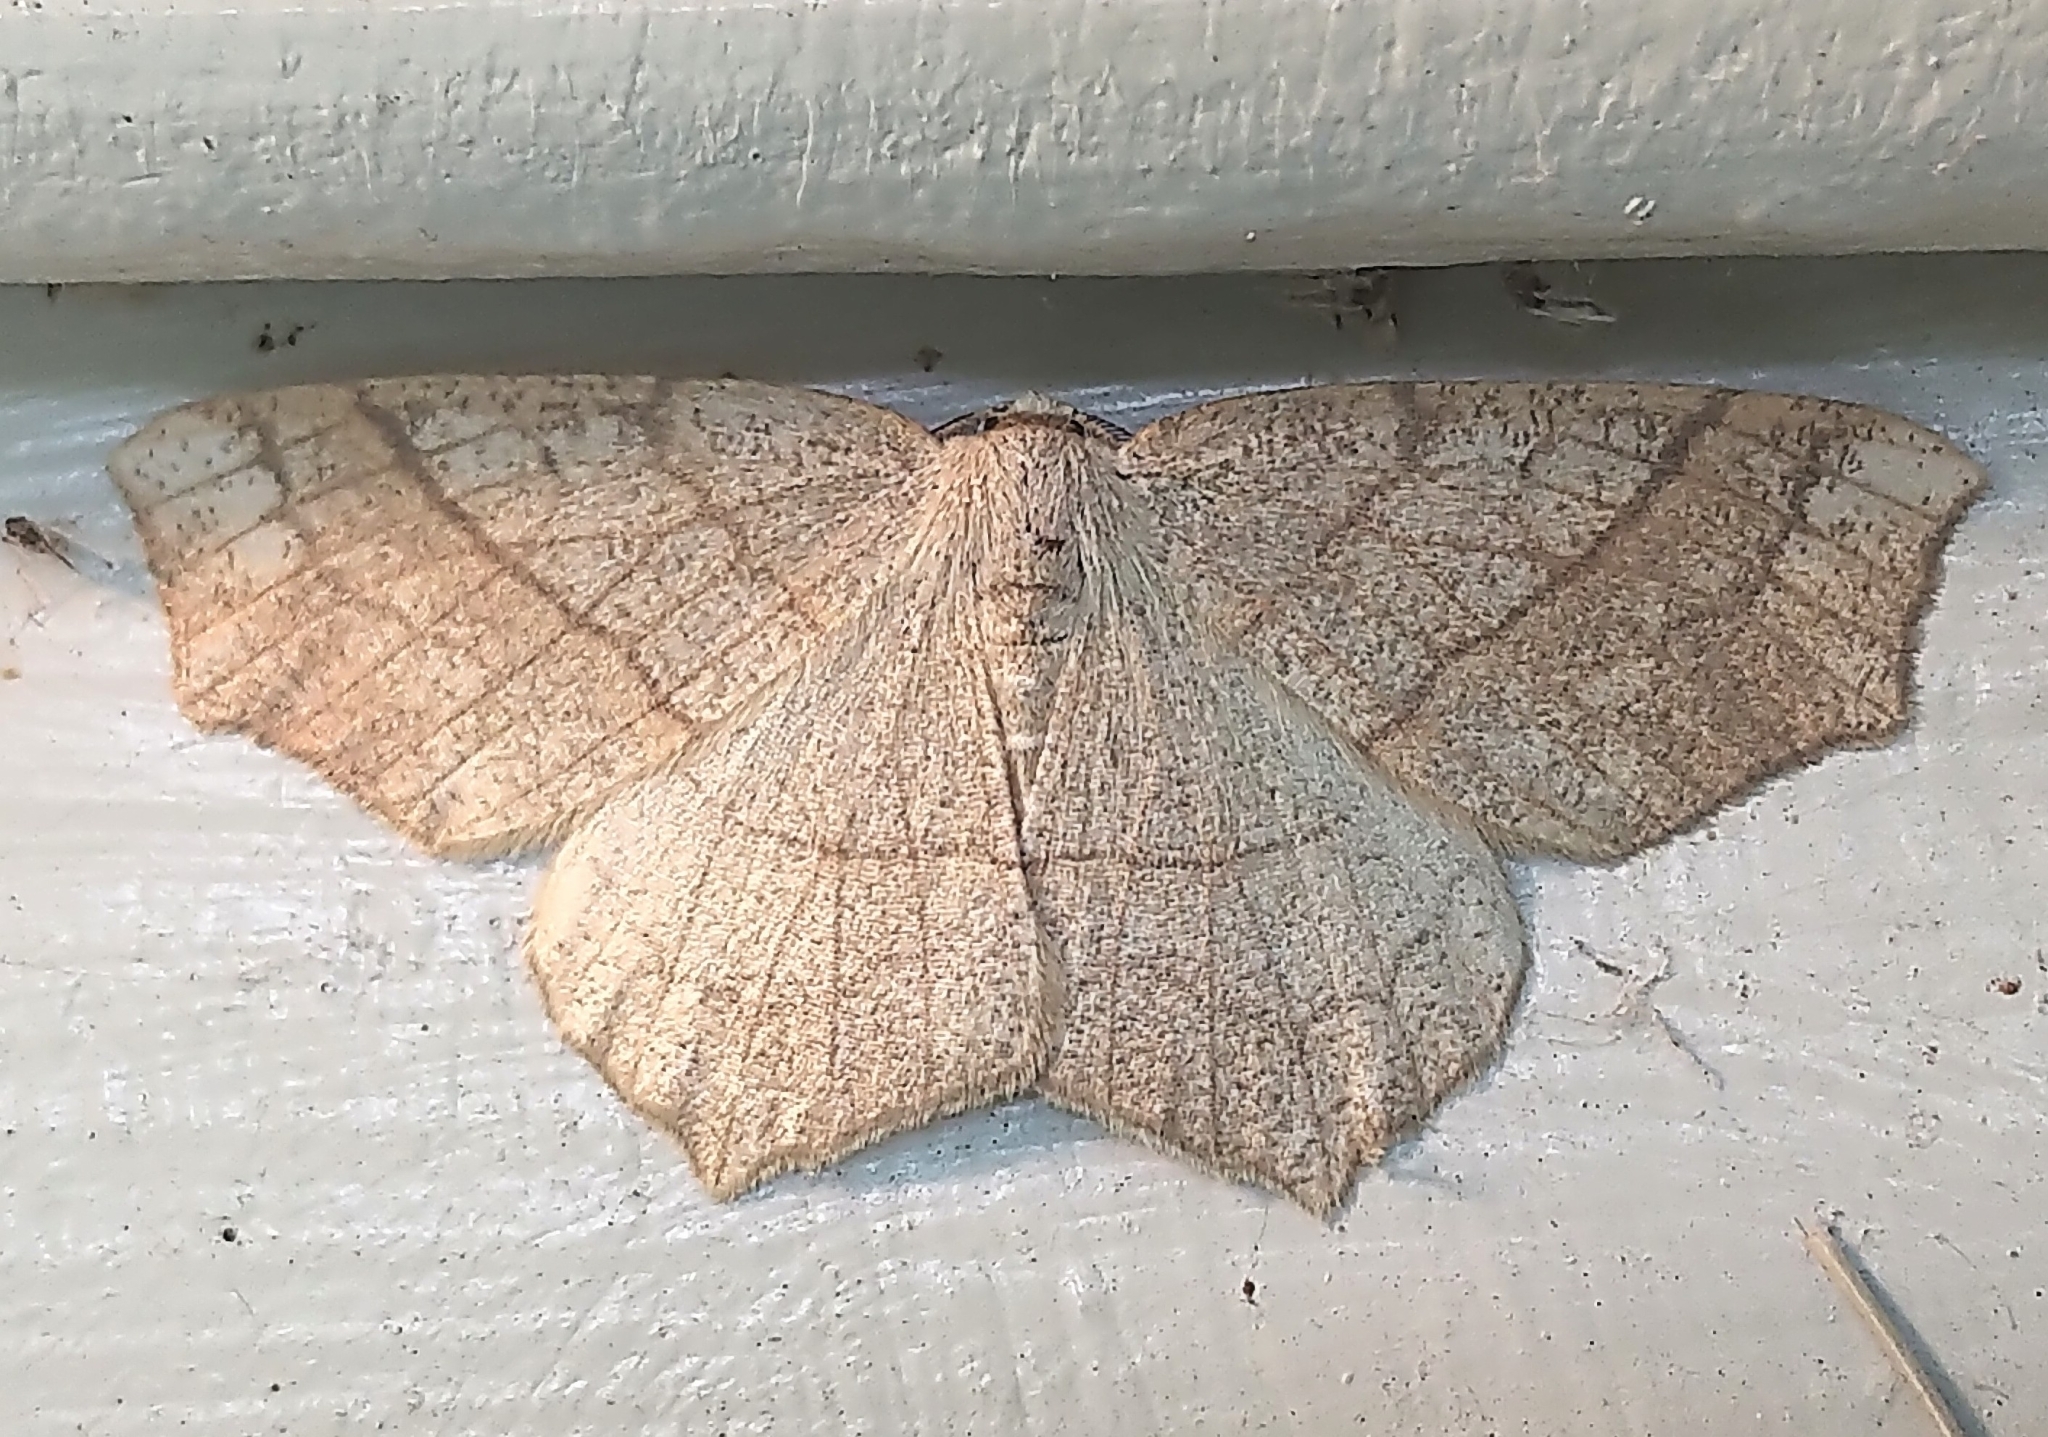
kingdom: Animalia
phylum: Arthropoda
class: Insecta
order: Lepidoptera
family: Geometridae
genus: Besma
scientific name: Besma quercivoraria
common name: Oak besma
